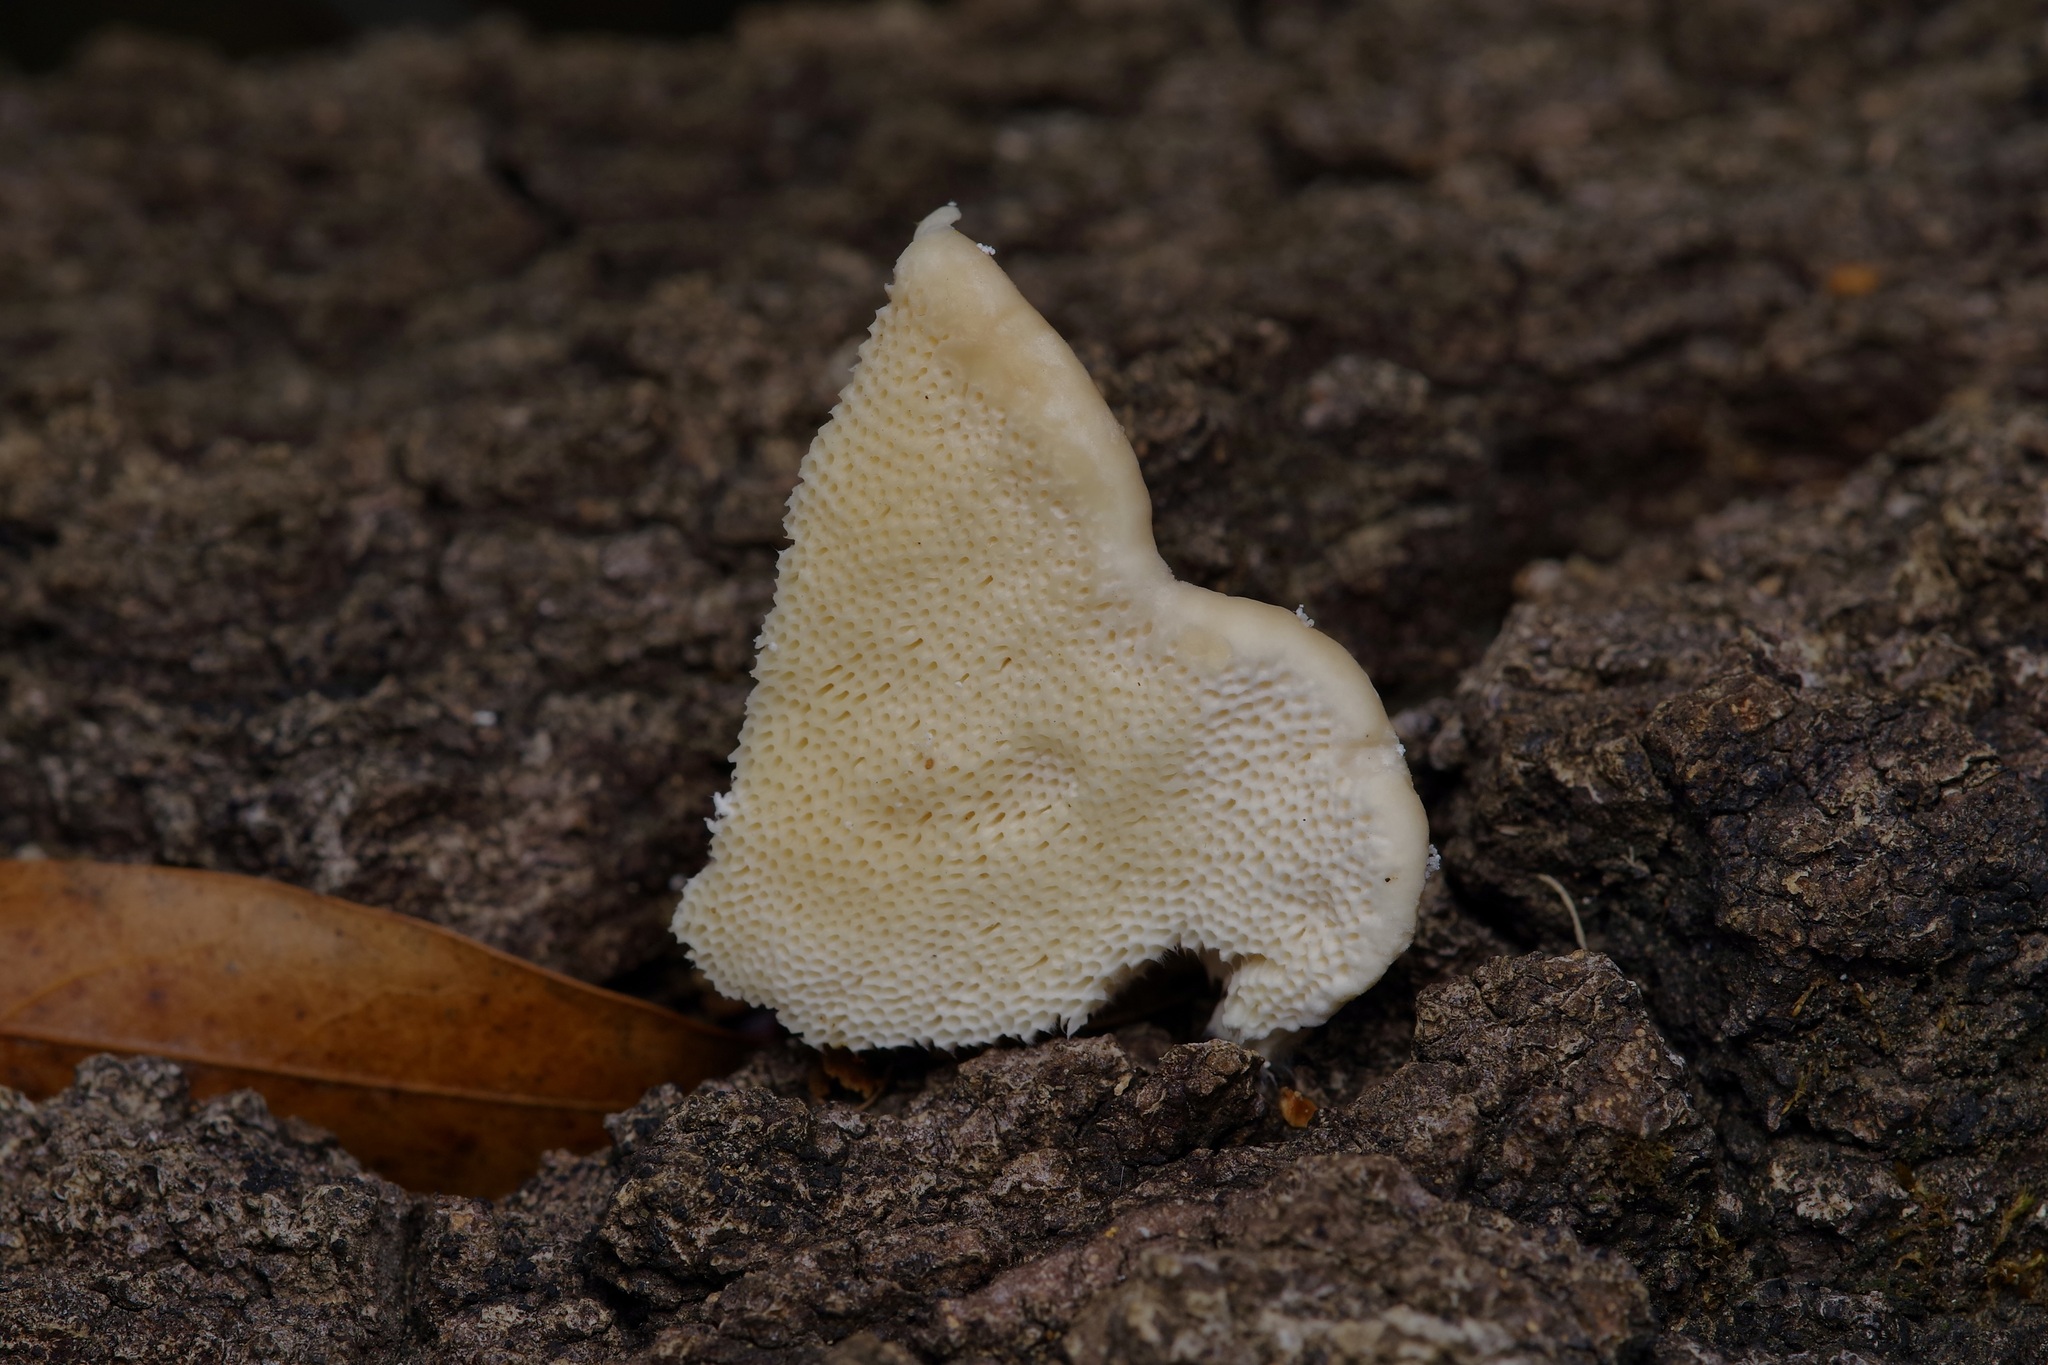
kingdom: Fungi
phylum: Basidiomycota
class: Agaricomycetes
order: Polyporales
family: Polyporaceae
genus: Trametes
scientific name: Trametes lactinea
